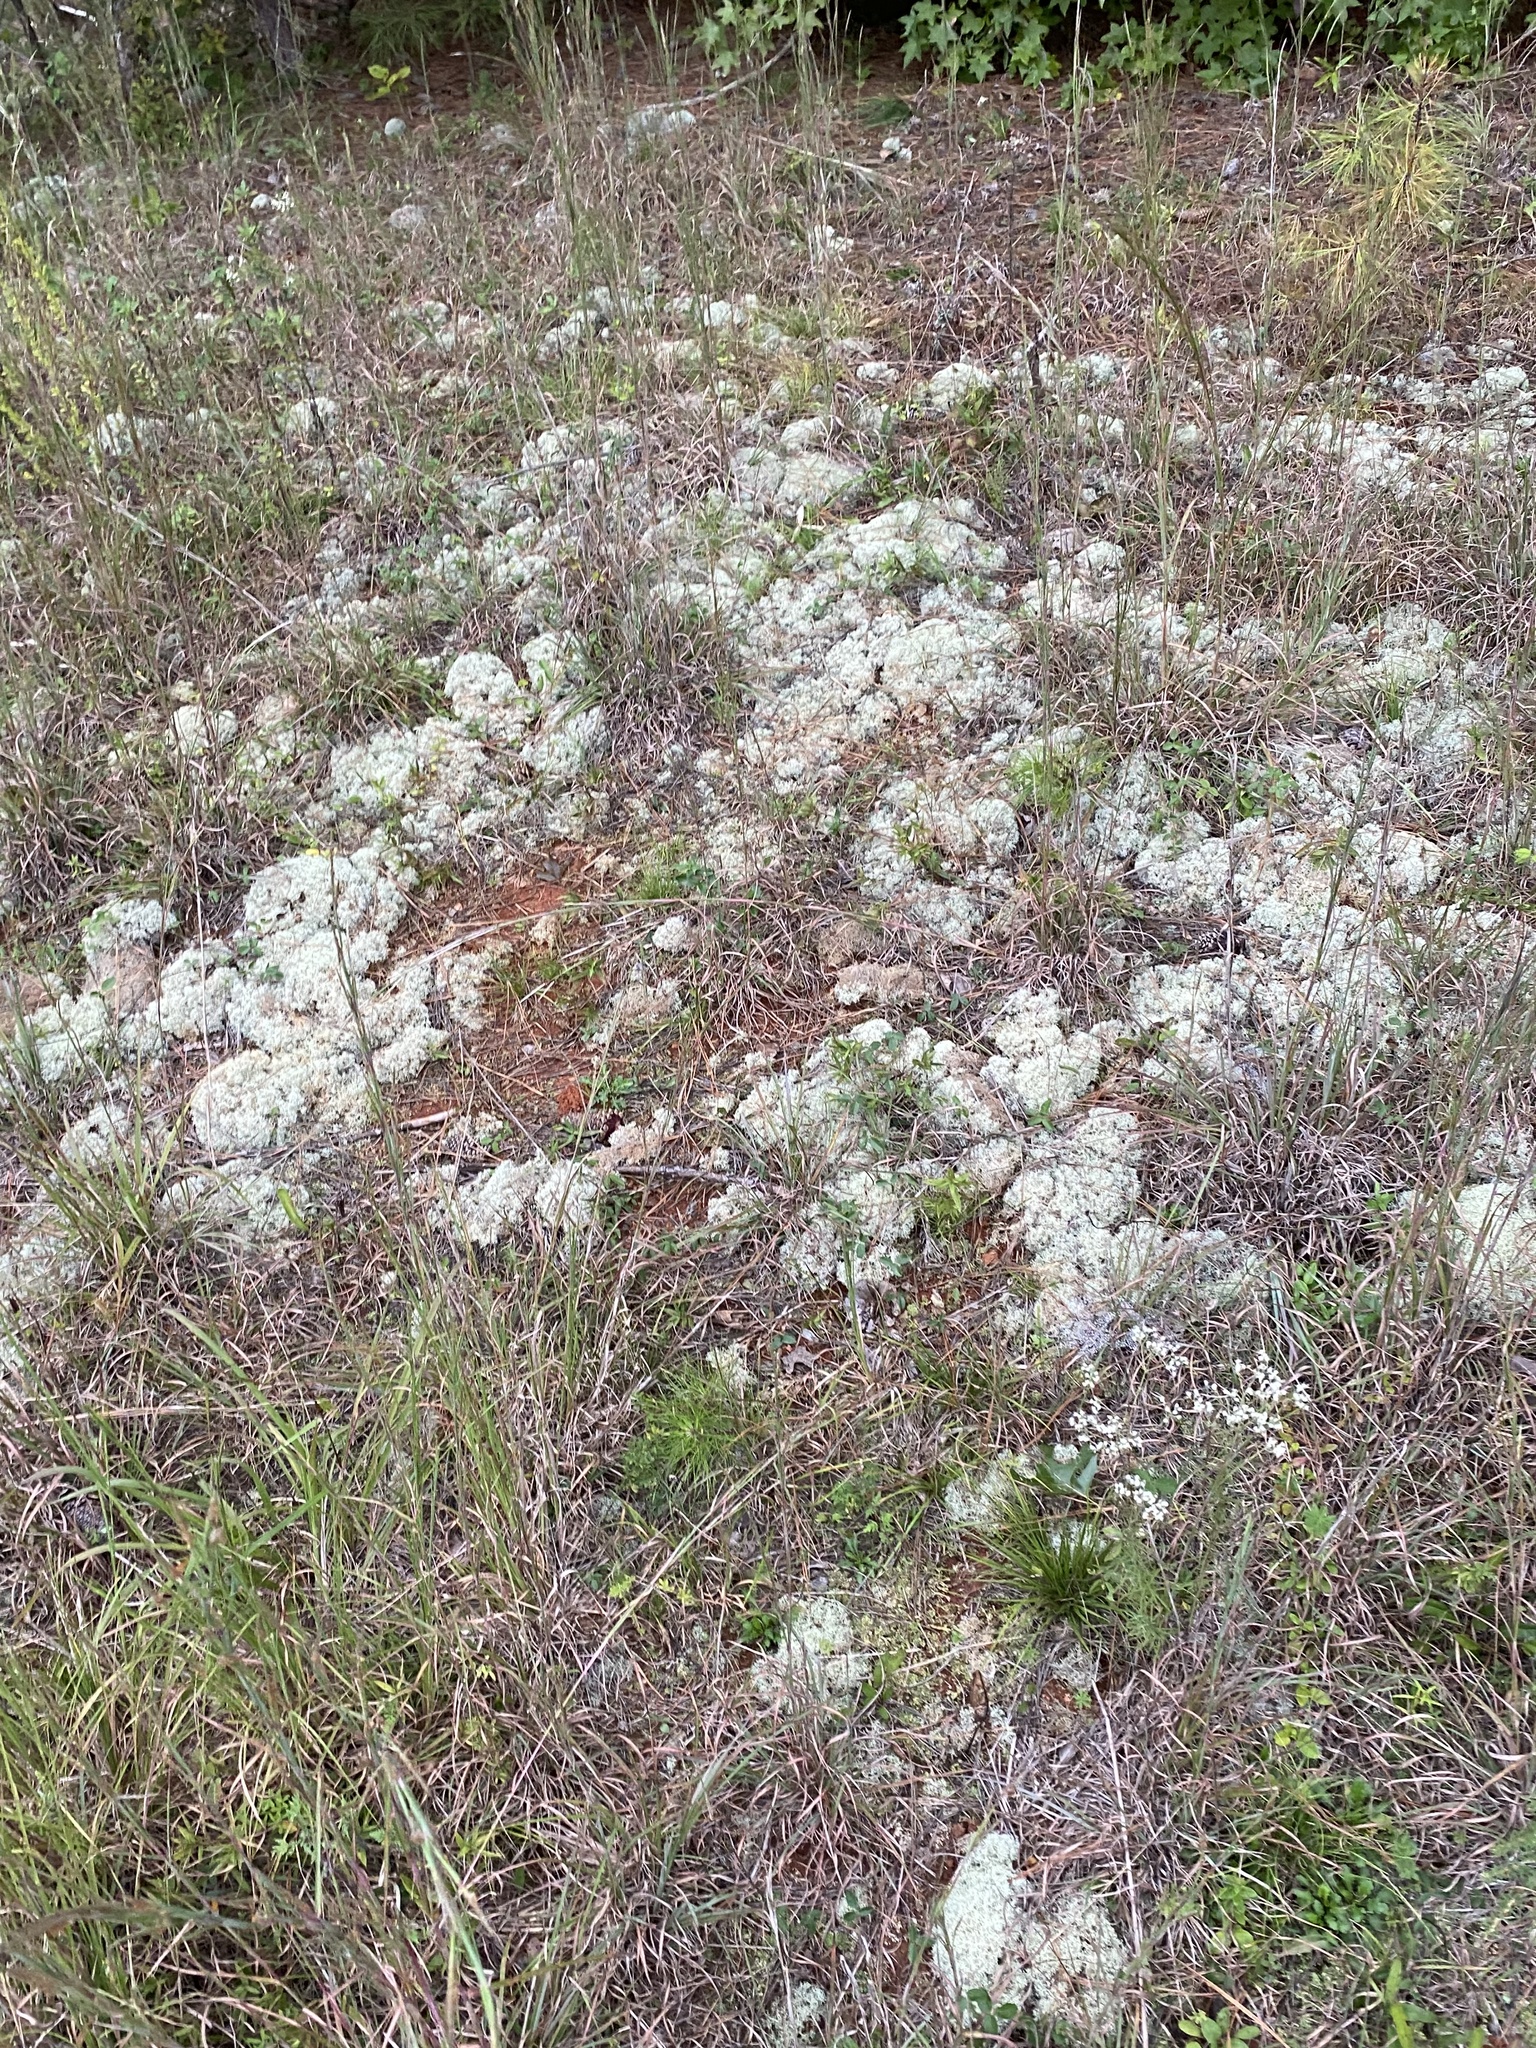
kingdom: Fungi
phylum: Ascomycota
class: Lecanoromycetes
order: Lecanorales
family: Cladoniaceae
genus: Cladonia
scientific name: Cladonia subtenuis
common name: Dixie reindeer lichen
